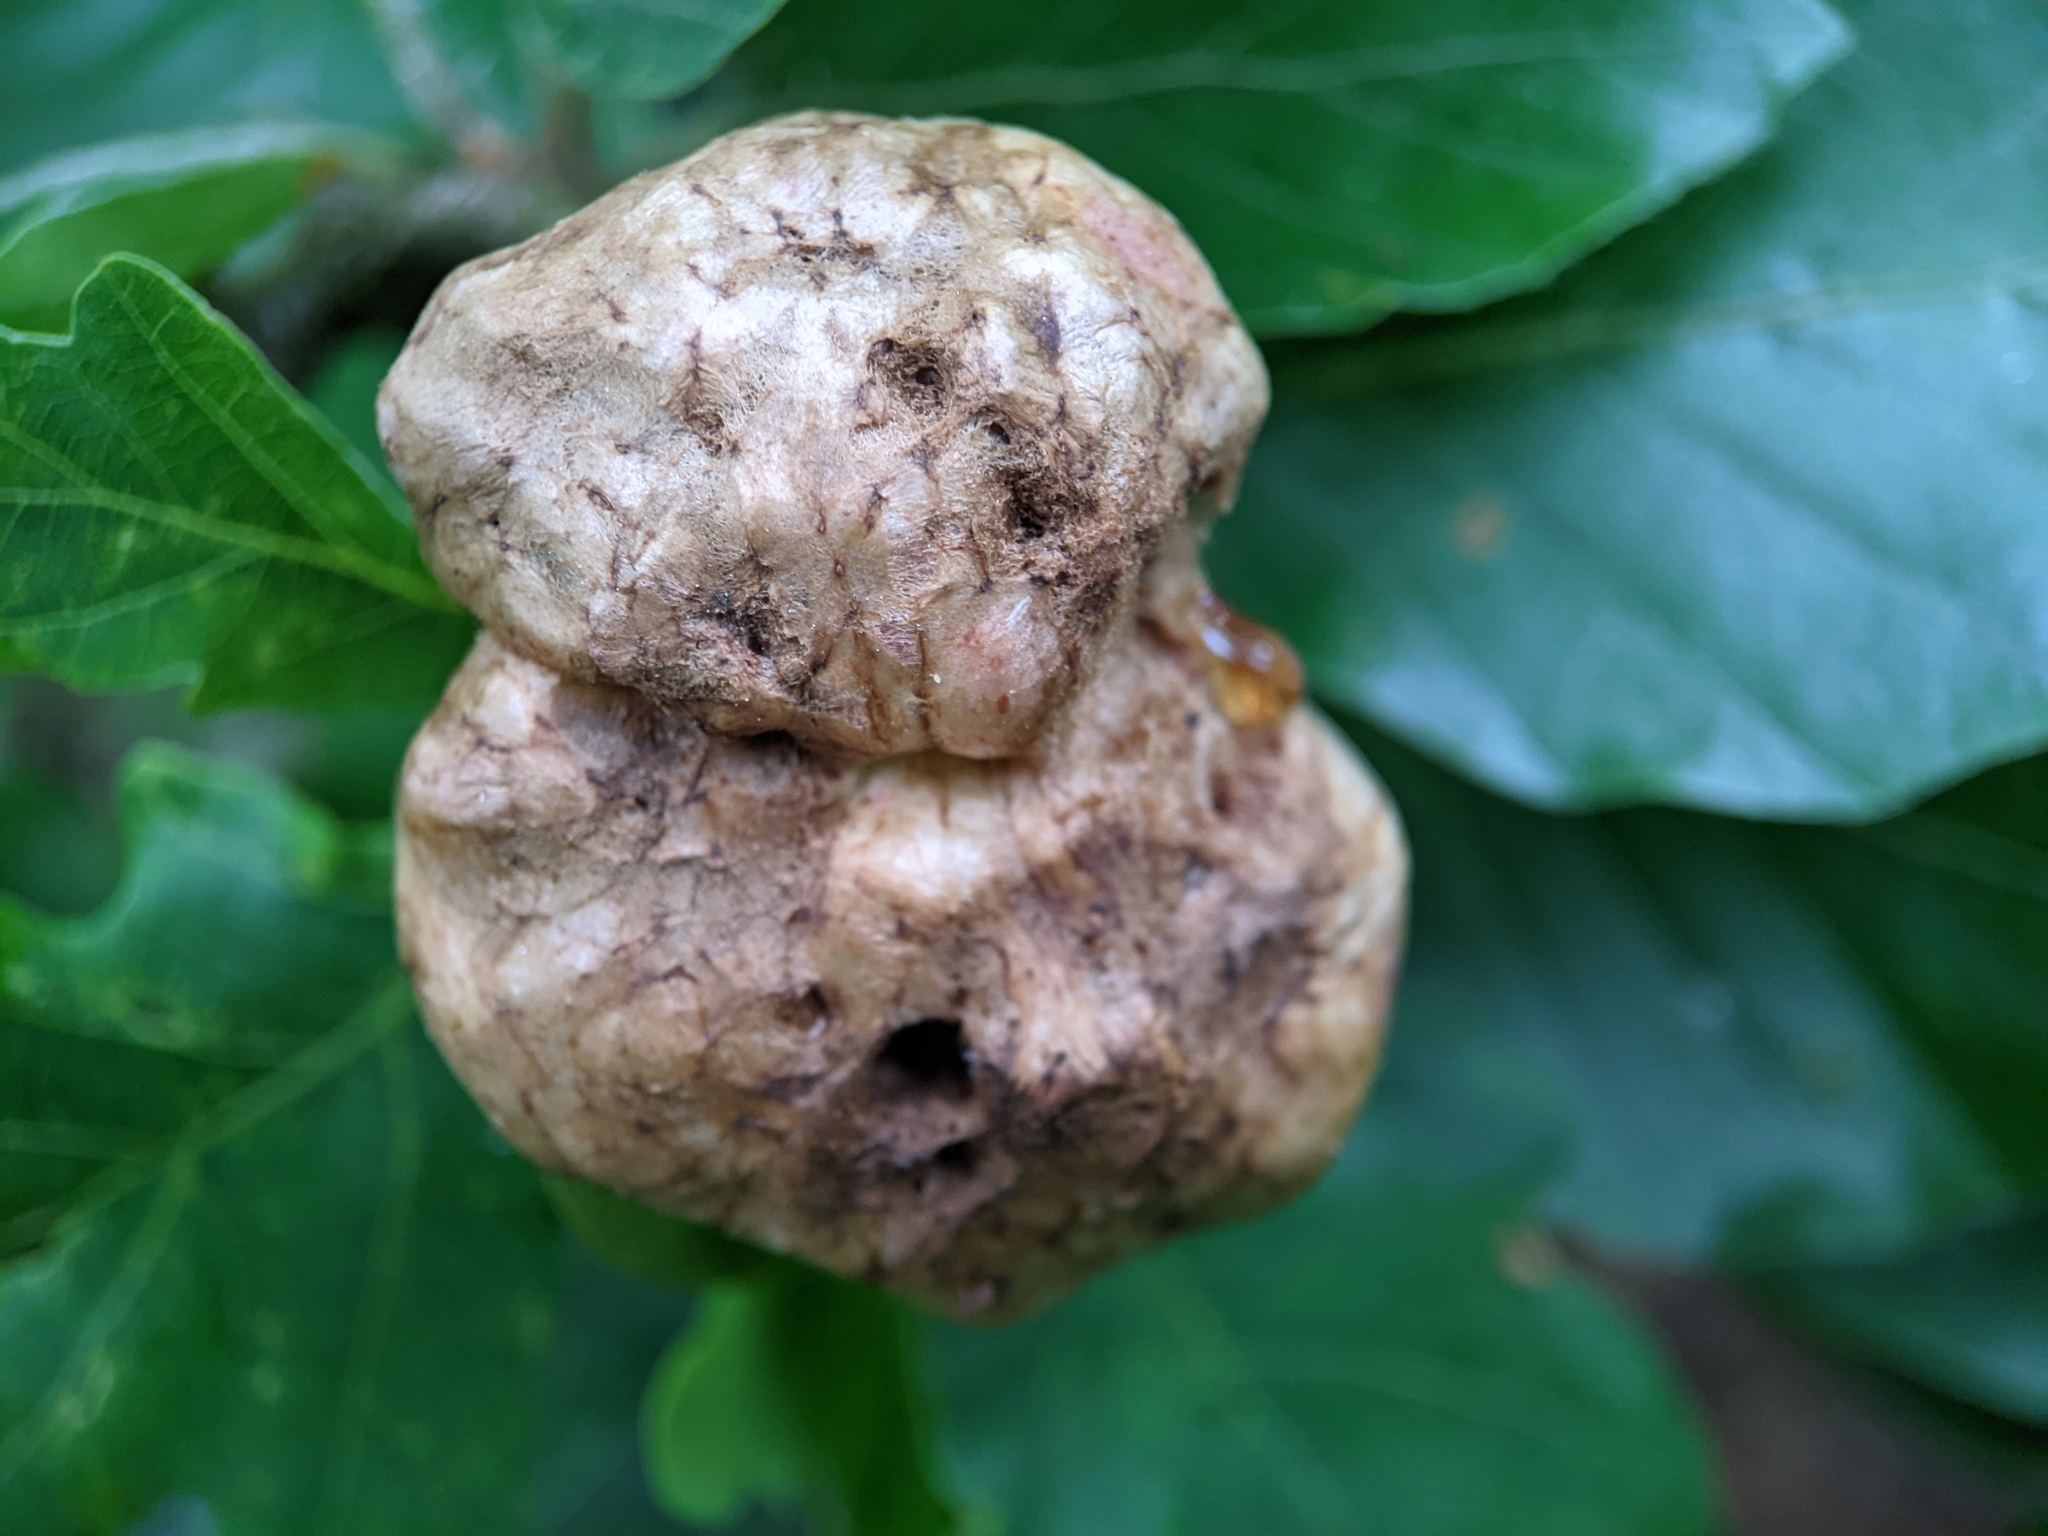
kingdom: Animalia
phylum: Arthropoda
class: Insecta
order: Hymenoptera
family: Cynipidae
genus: Biorhiza
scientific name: Biorhiza pallida
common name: Oak apple
